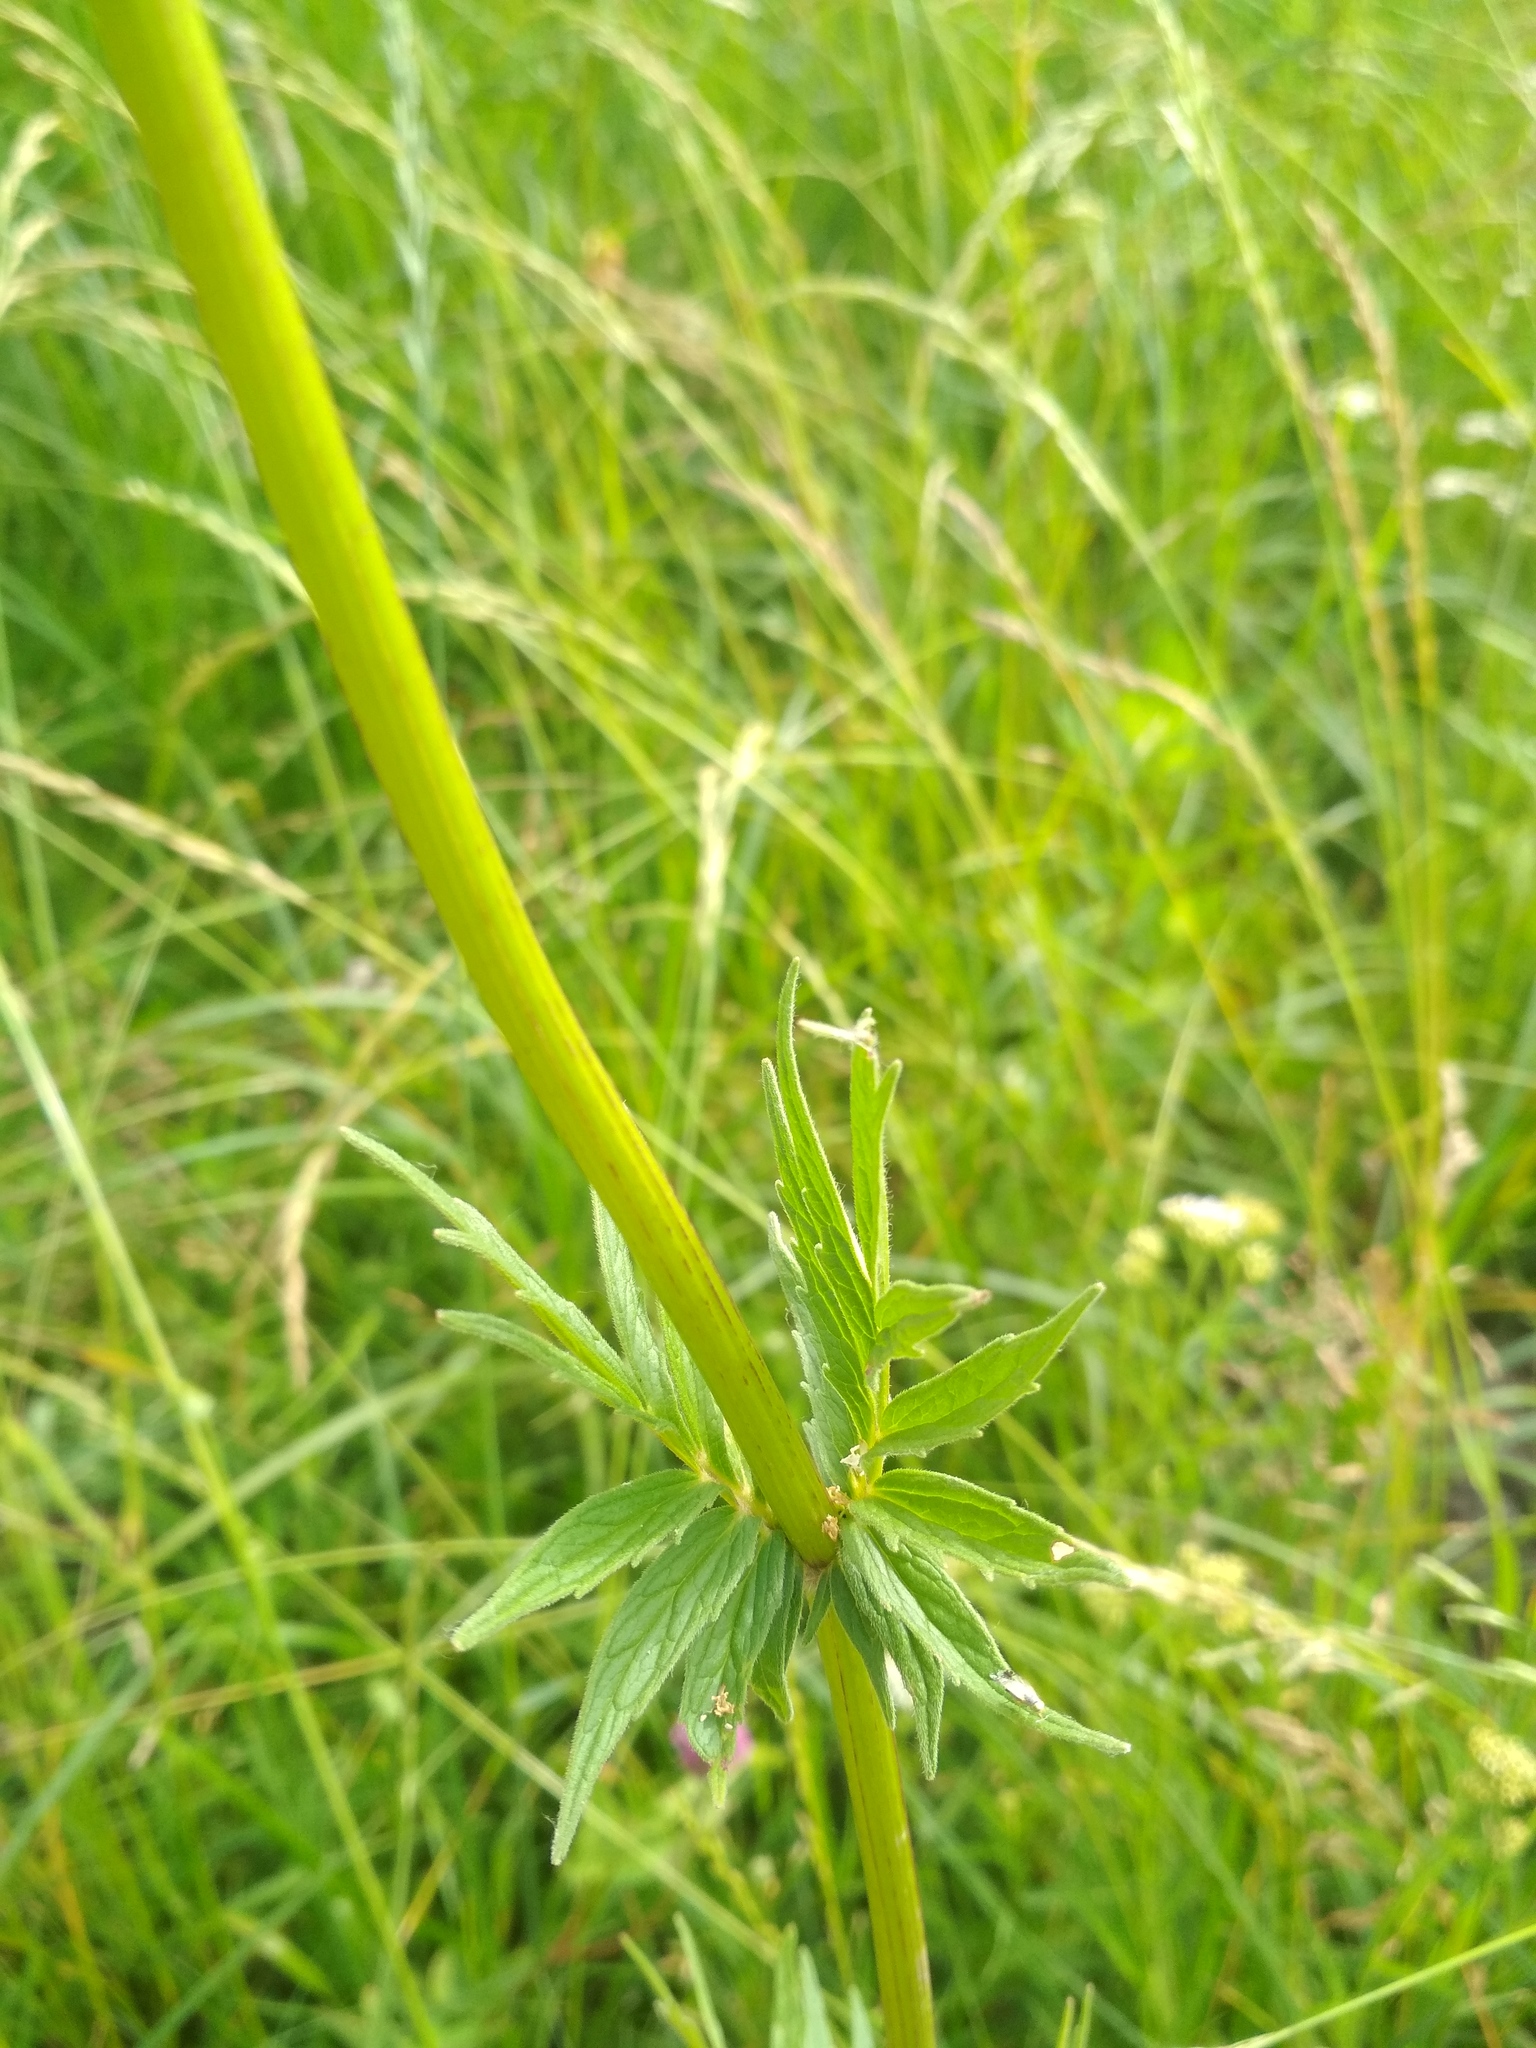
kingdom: Plantae
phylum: Tracheophyta
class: Magnoliopsida
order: Dipsacales
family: Caprifoliaceae
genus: Valeriana
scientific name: Valeriana officinalis
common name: Common valerian
